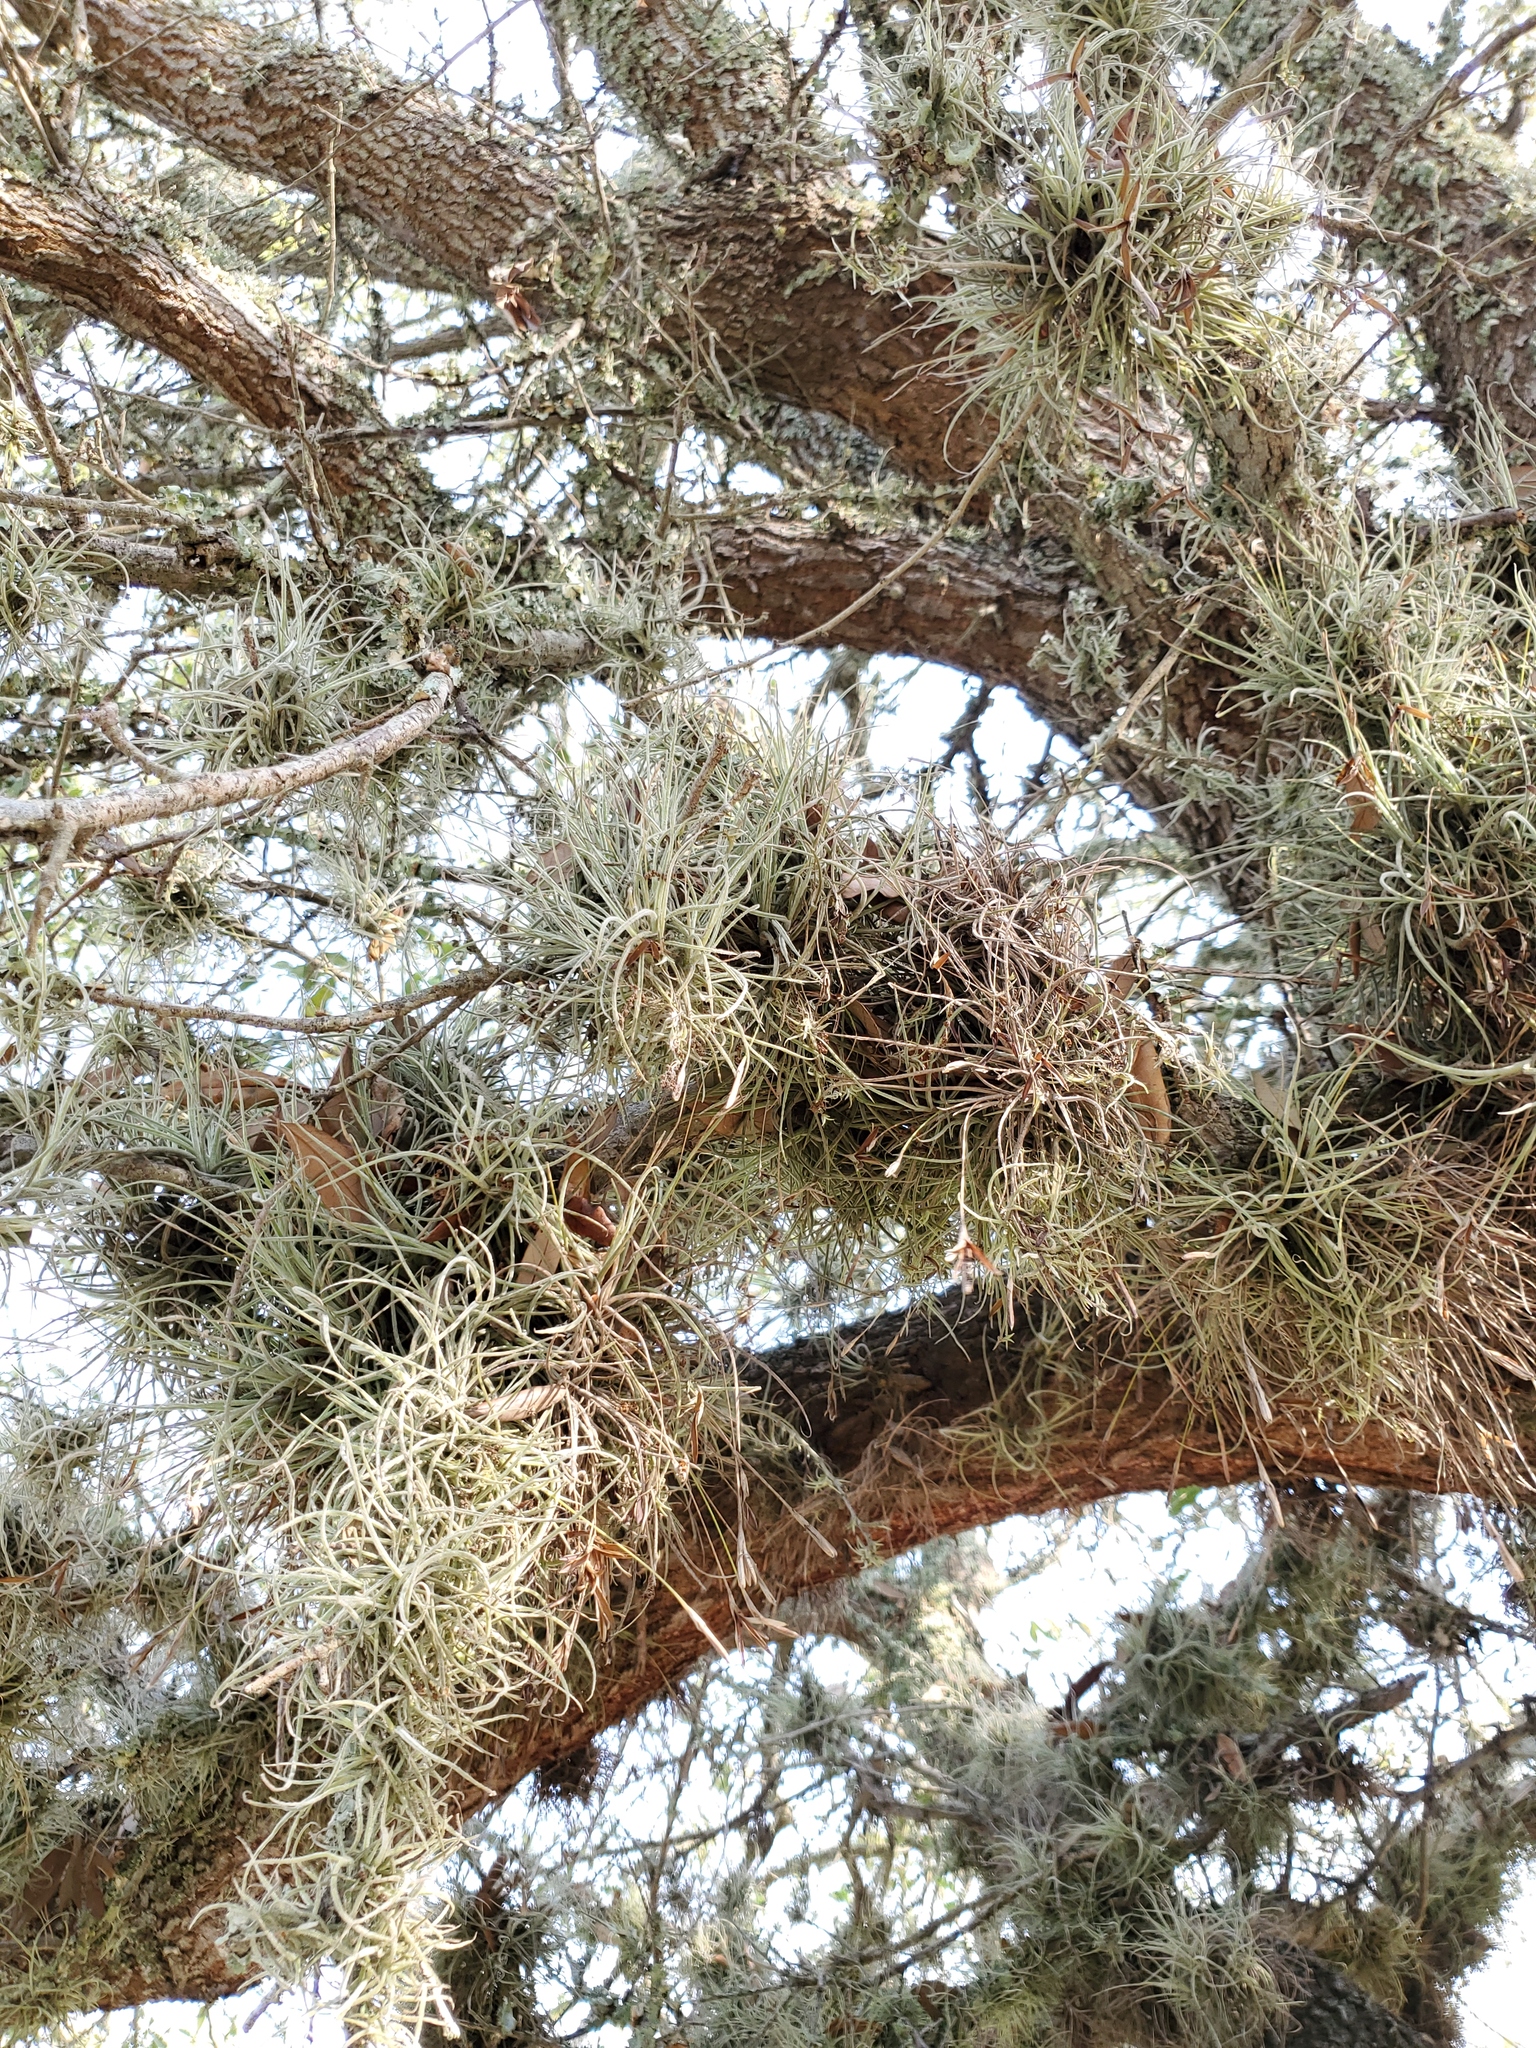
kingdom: Plantae
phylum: Tracheophyta
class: Liliopsida
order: Poales
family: Bromeliaceae
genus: Tillandsia
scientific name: Tillandsia recurvata
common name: Small ballmoss
